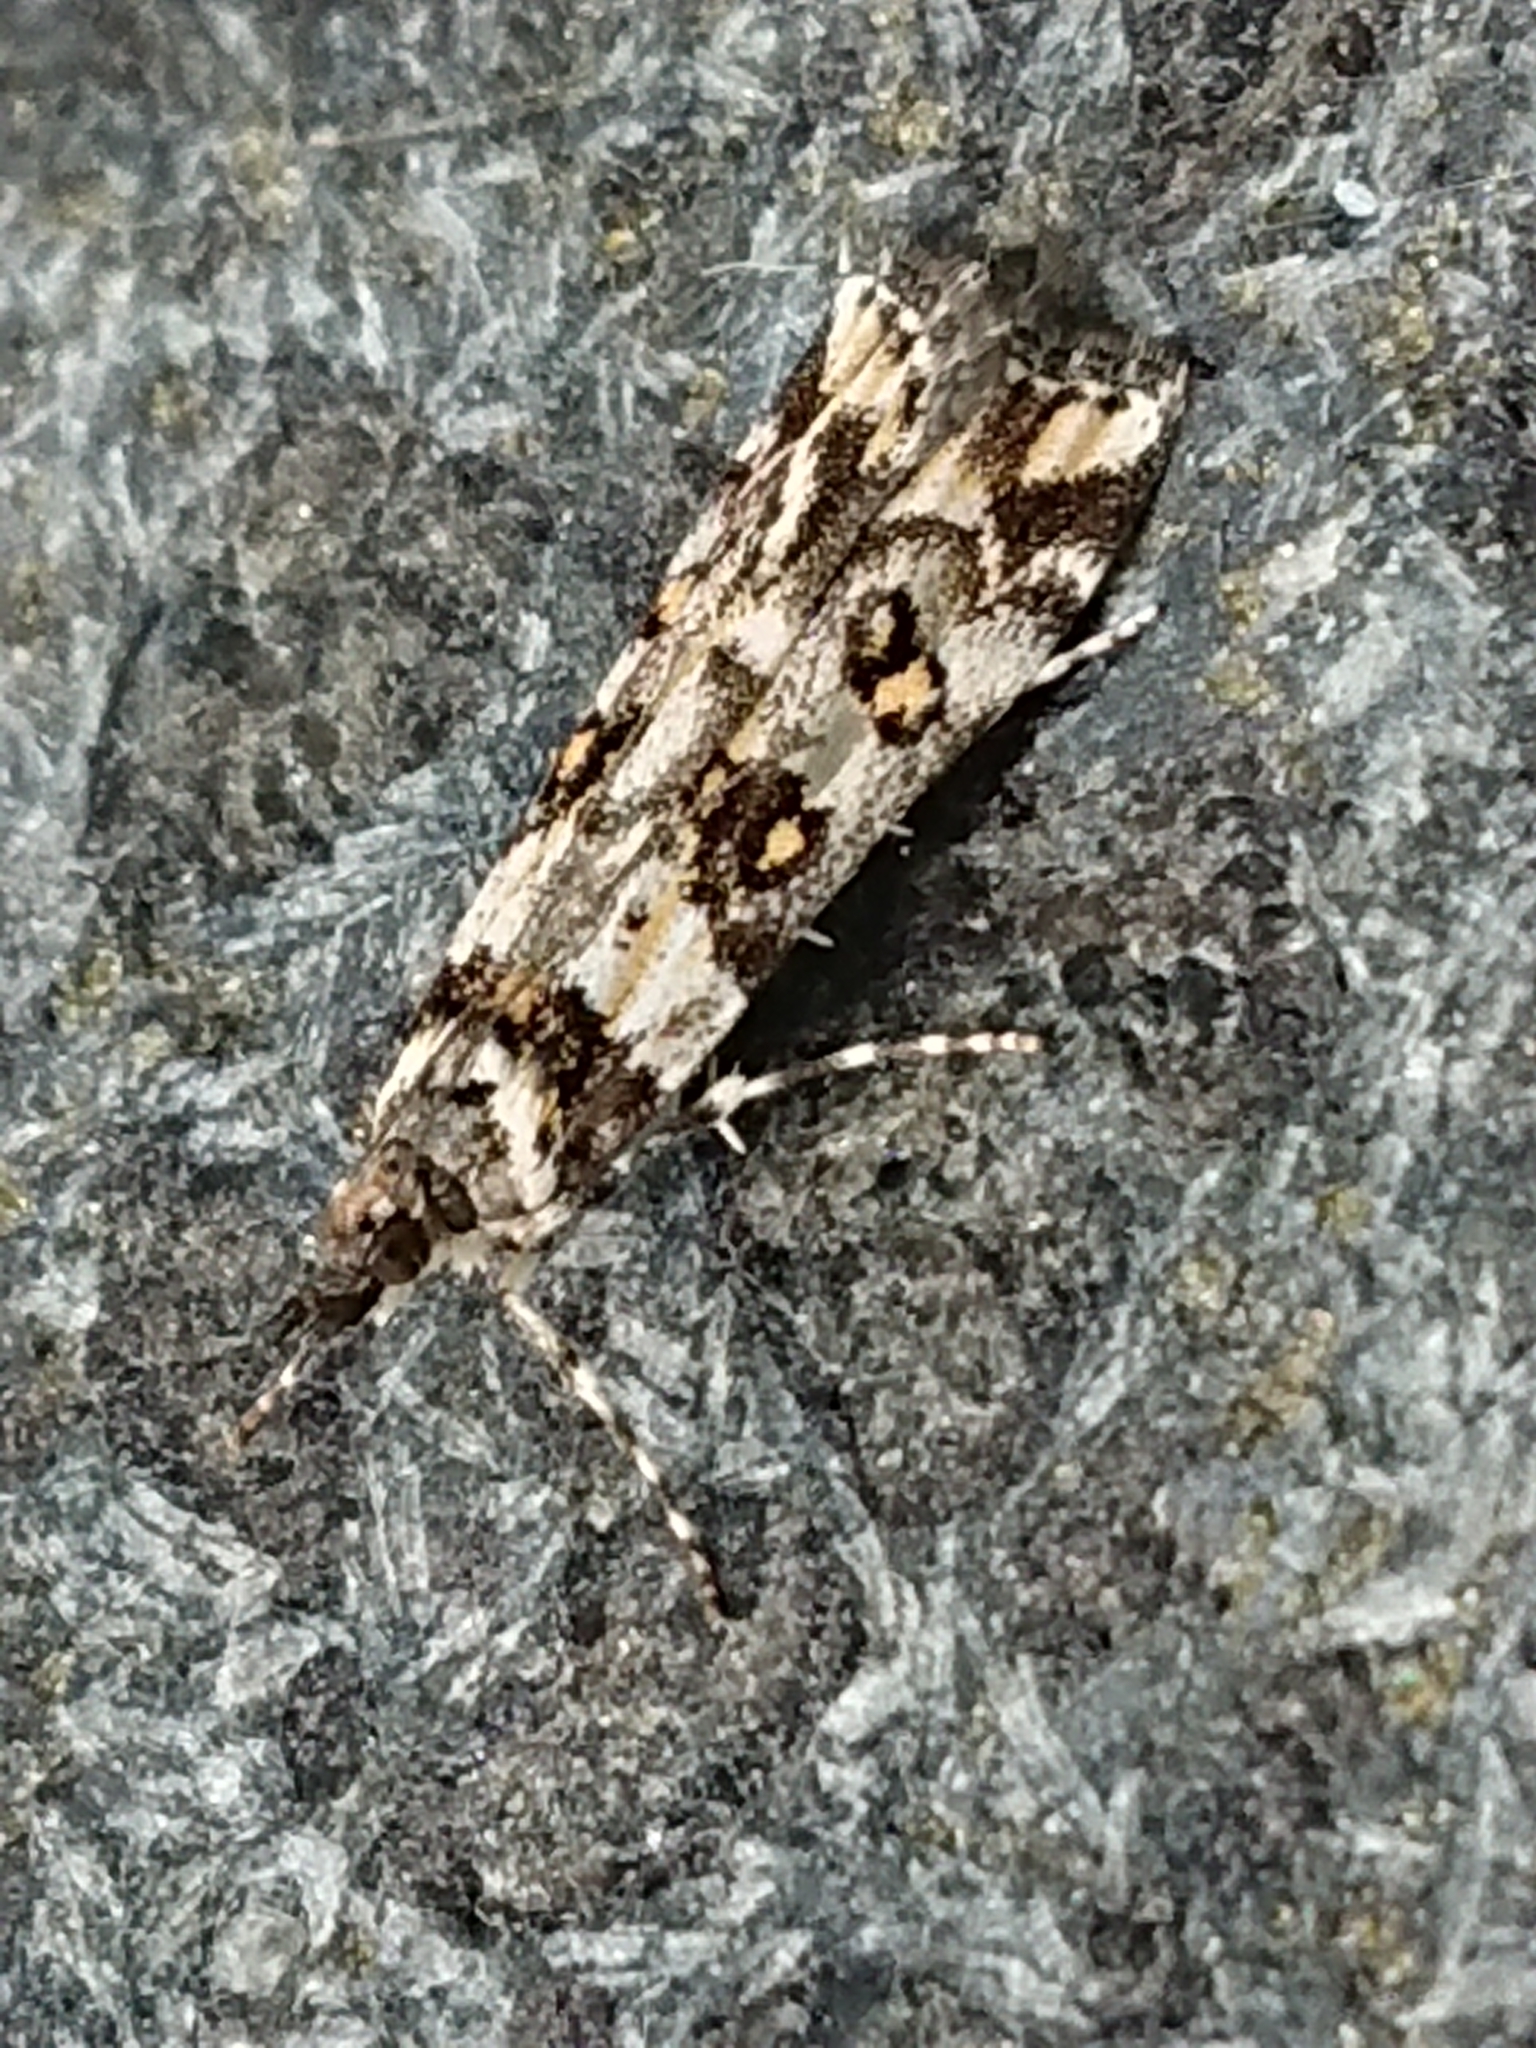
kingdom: Animalia
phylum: Arthropoda
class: Insecta
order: Lepidoptera
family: Crambidae
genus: Eudonia
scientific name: Eudonia diphtheralis
